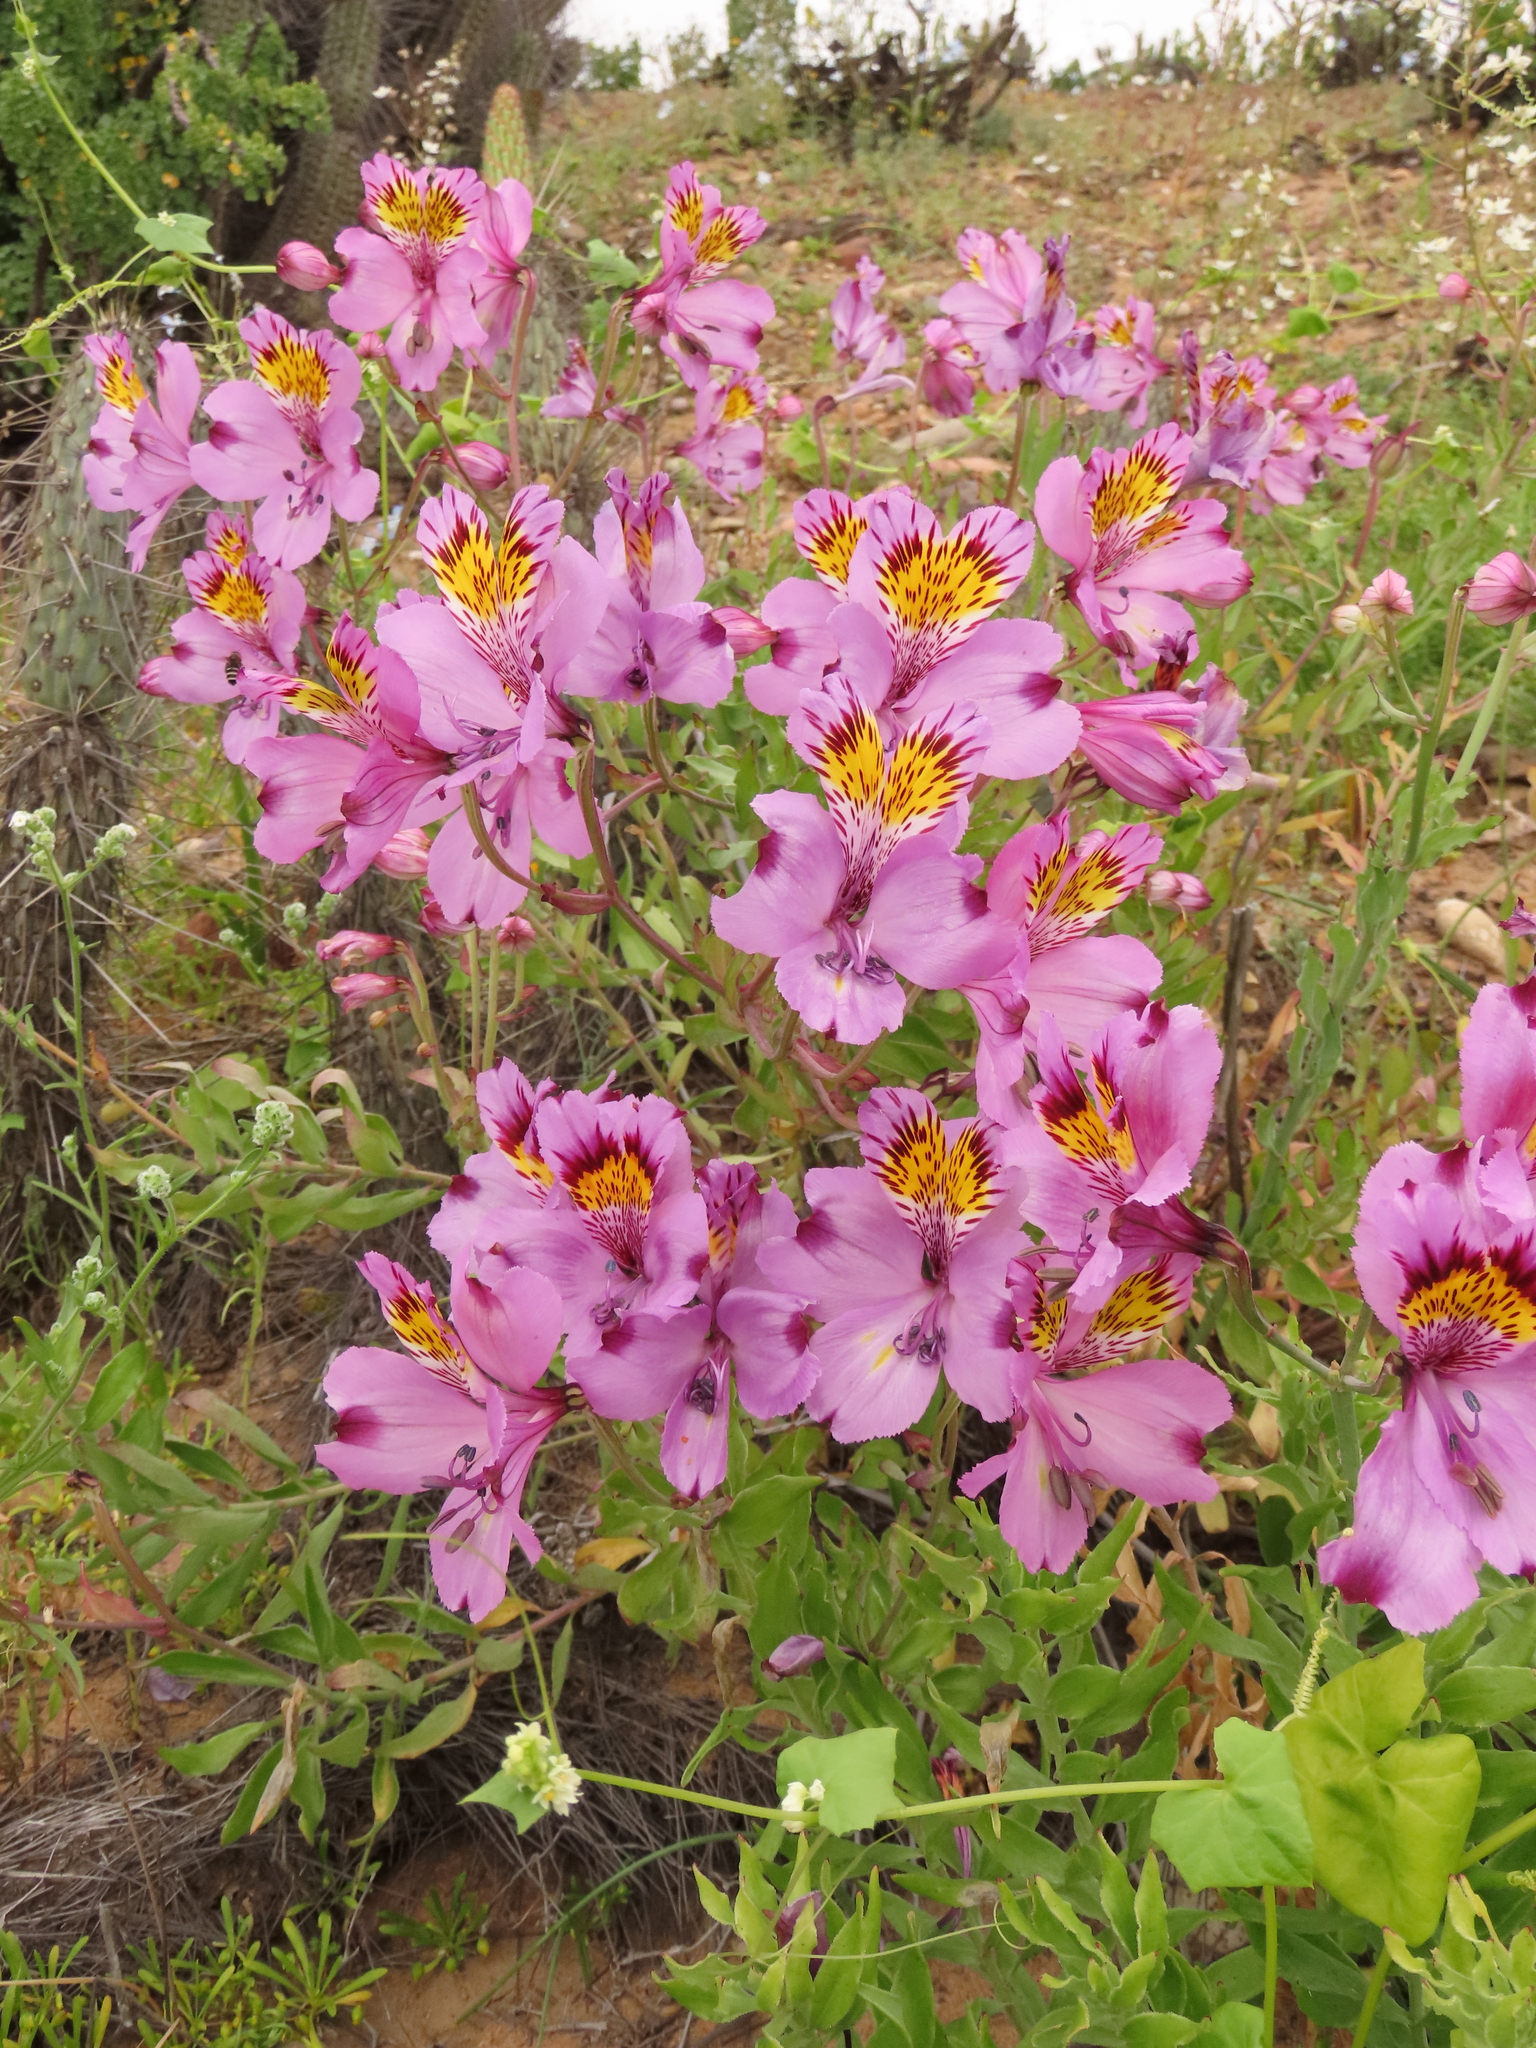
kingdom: Plantae
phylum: Tracheophyta
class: Liliopsida
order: Liliales
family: Alstroemeriaceae
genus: Alstroemeria
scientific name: Alstroemeria philippii
